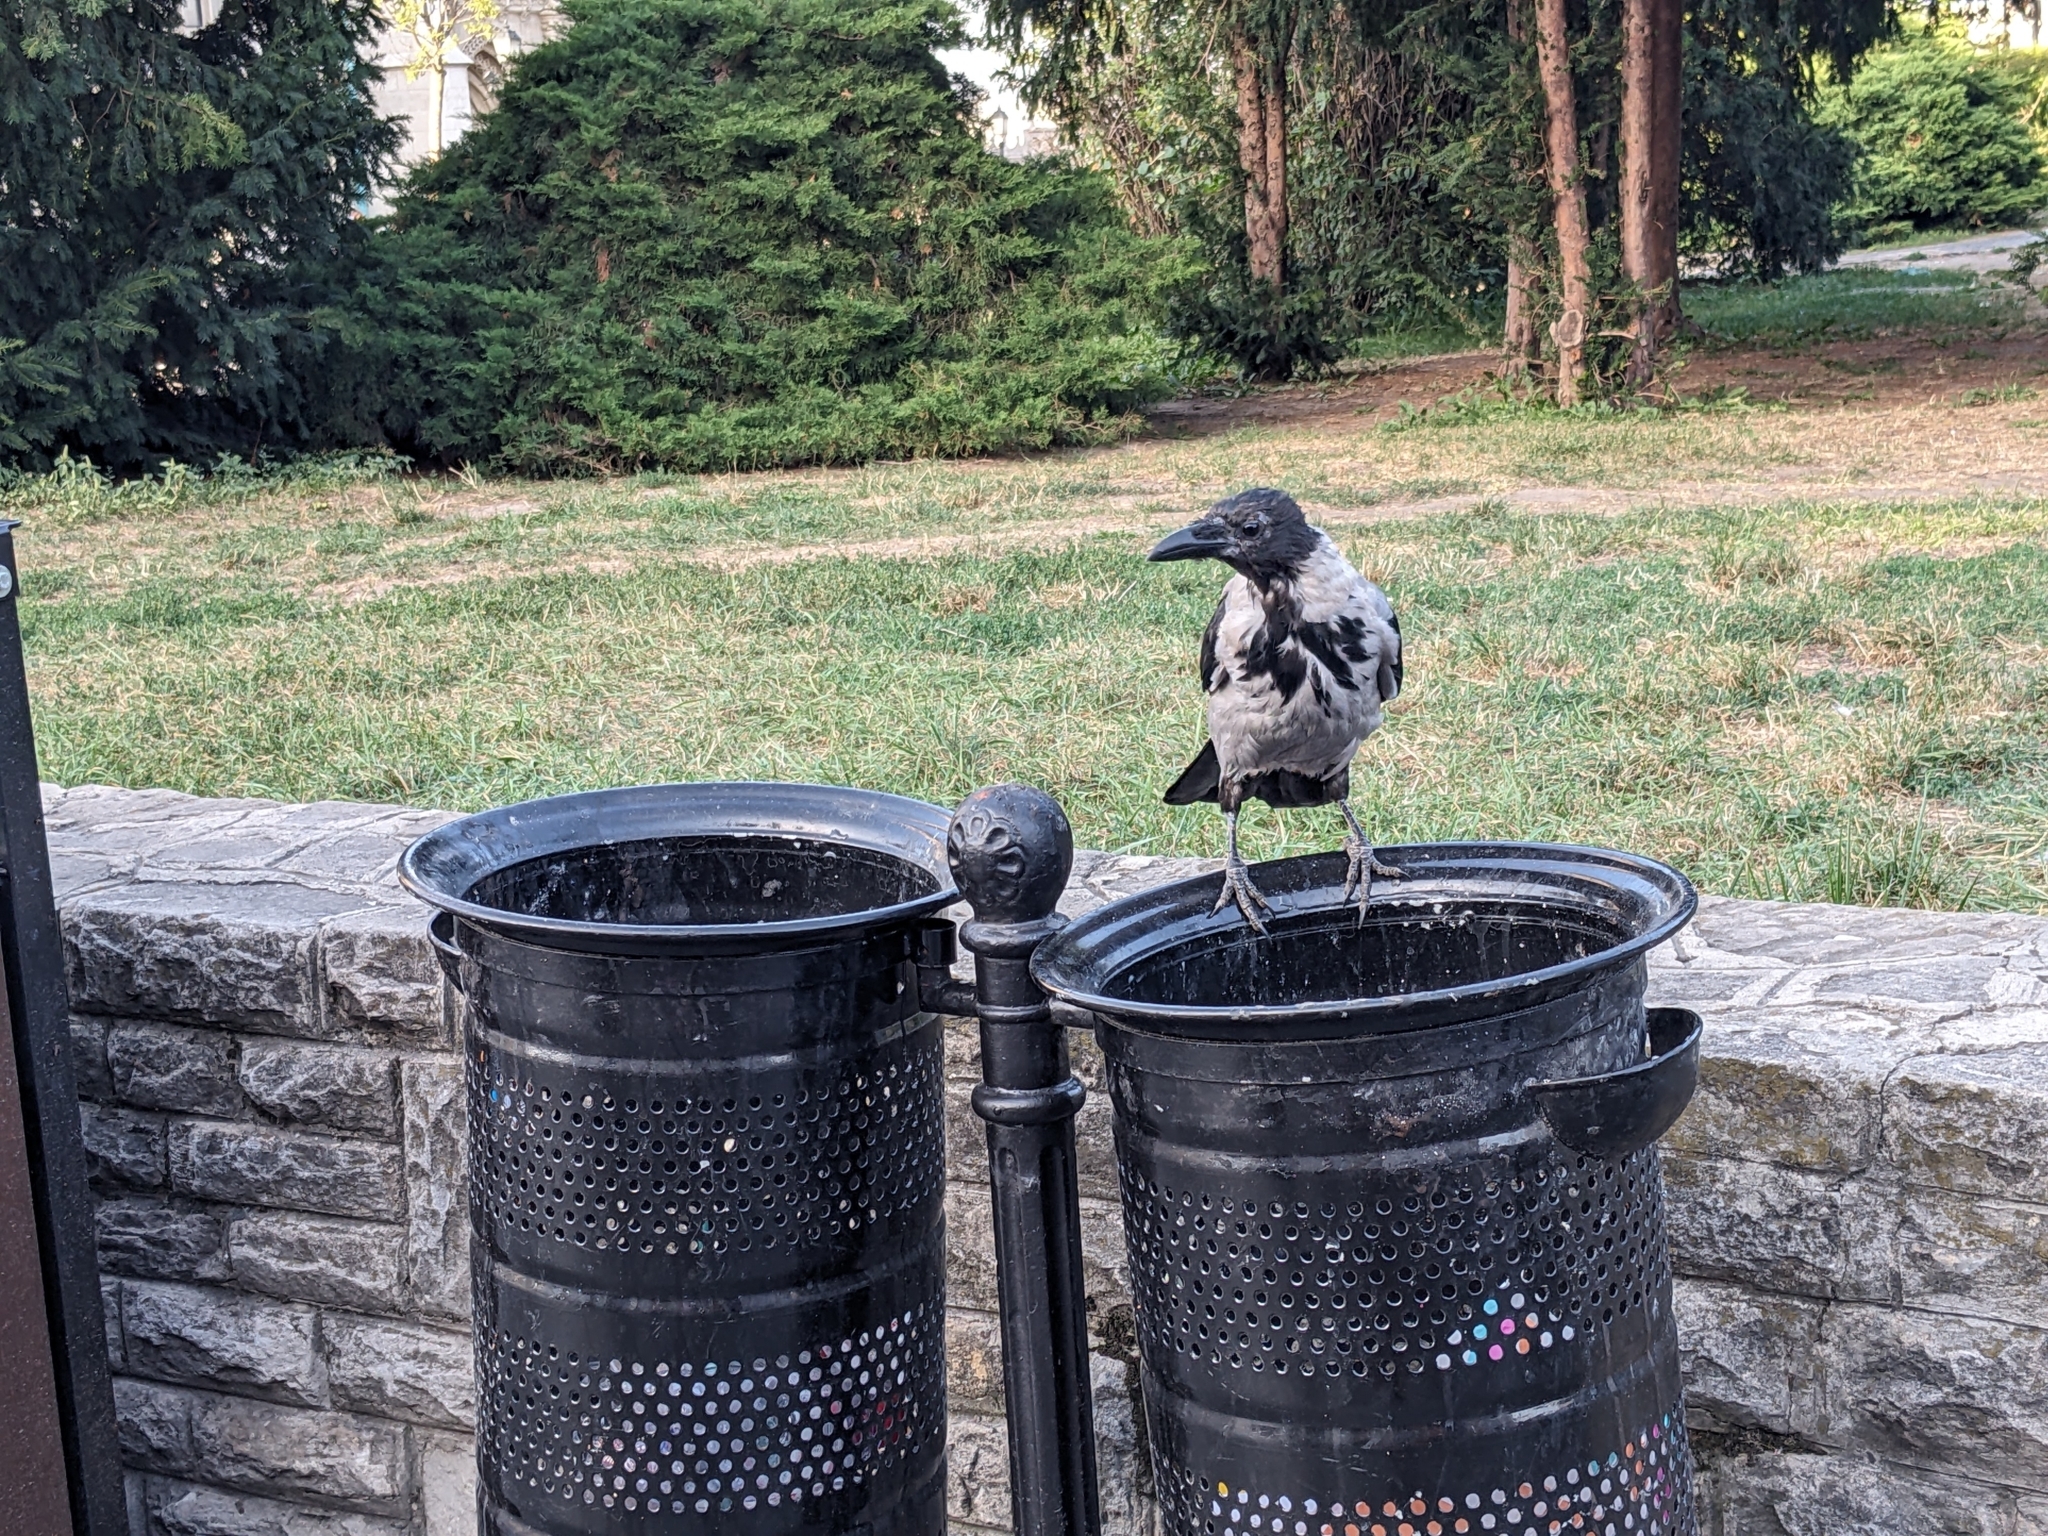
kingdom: Animalia
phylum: Chordata
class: Aves
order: Passeriformes
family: Corvidae
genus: Corvus
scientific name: Corvus cornix
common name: Hooded crow
